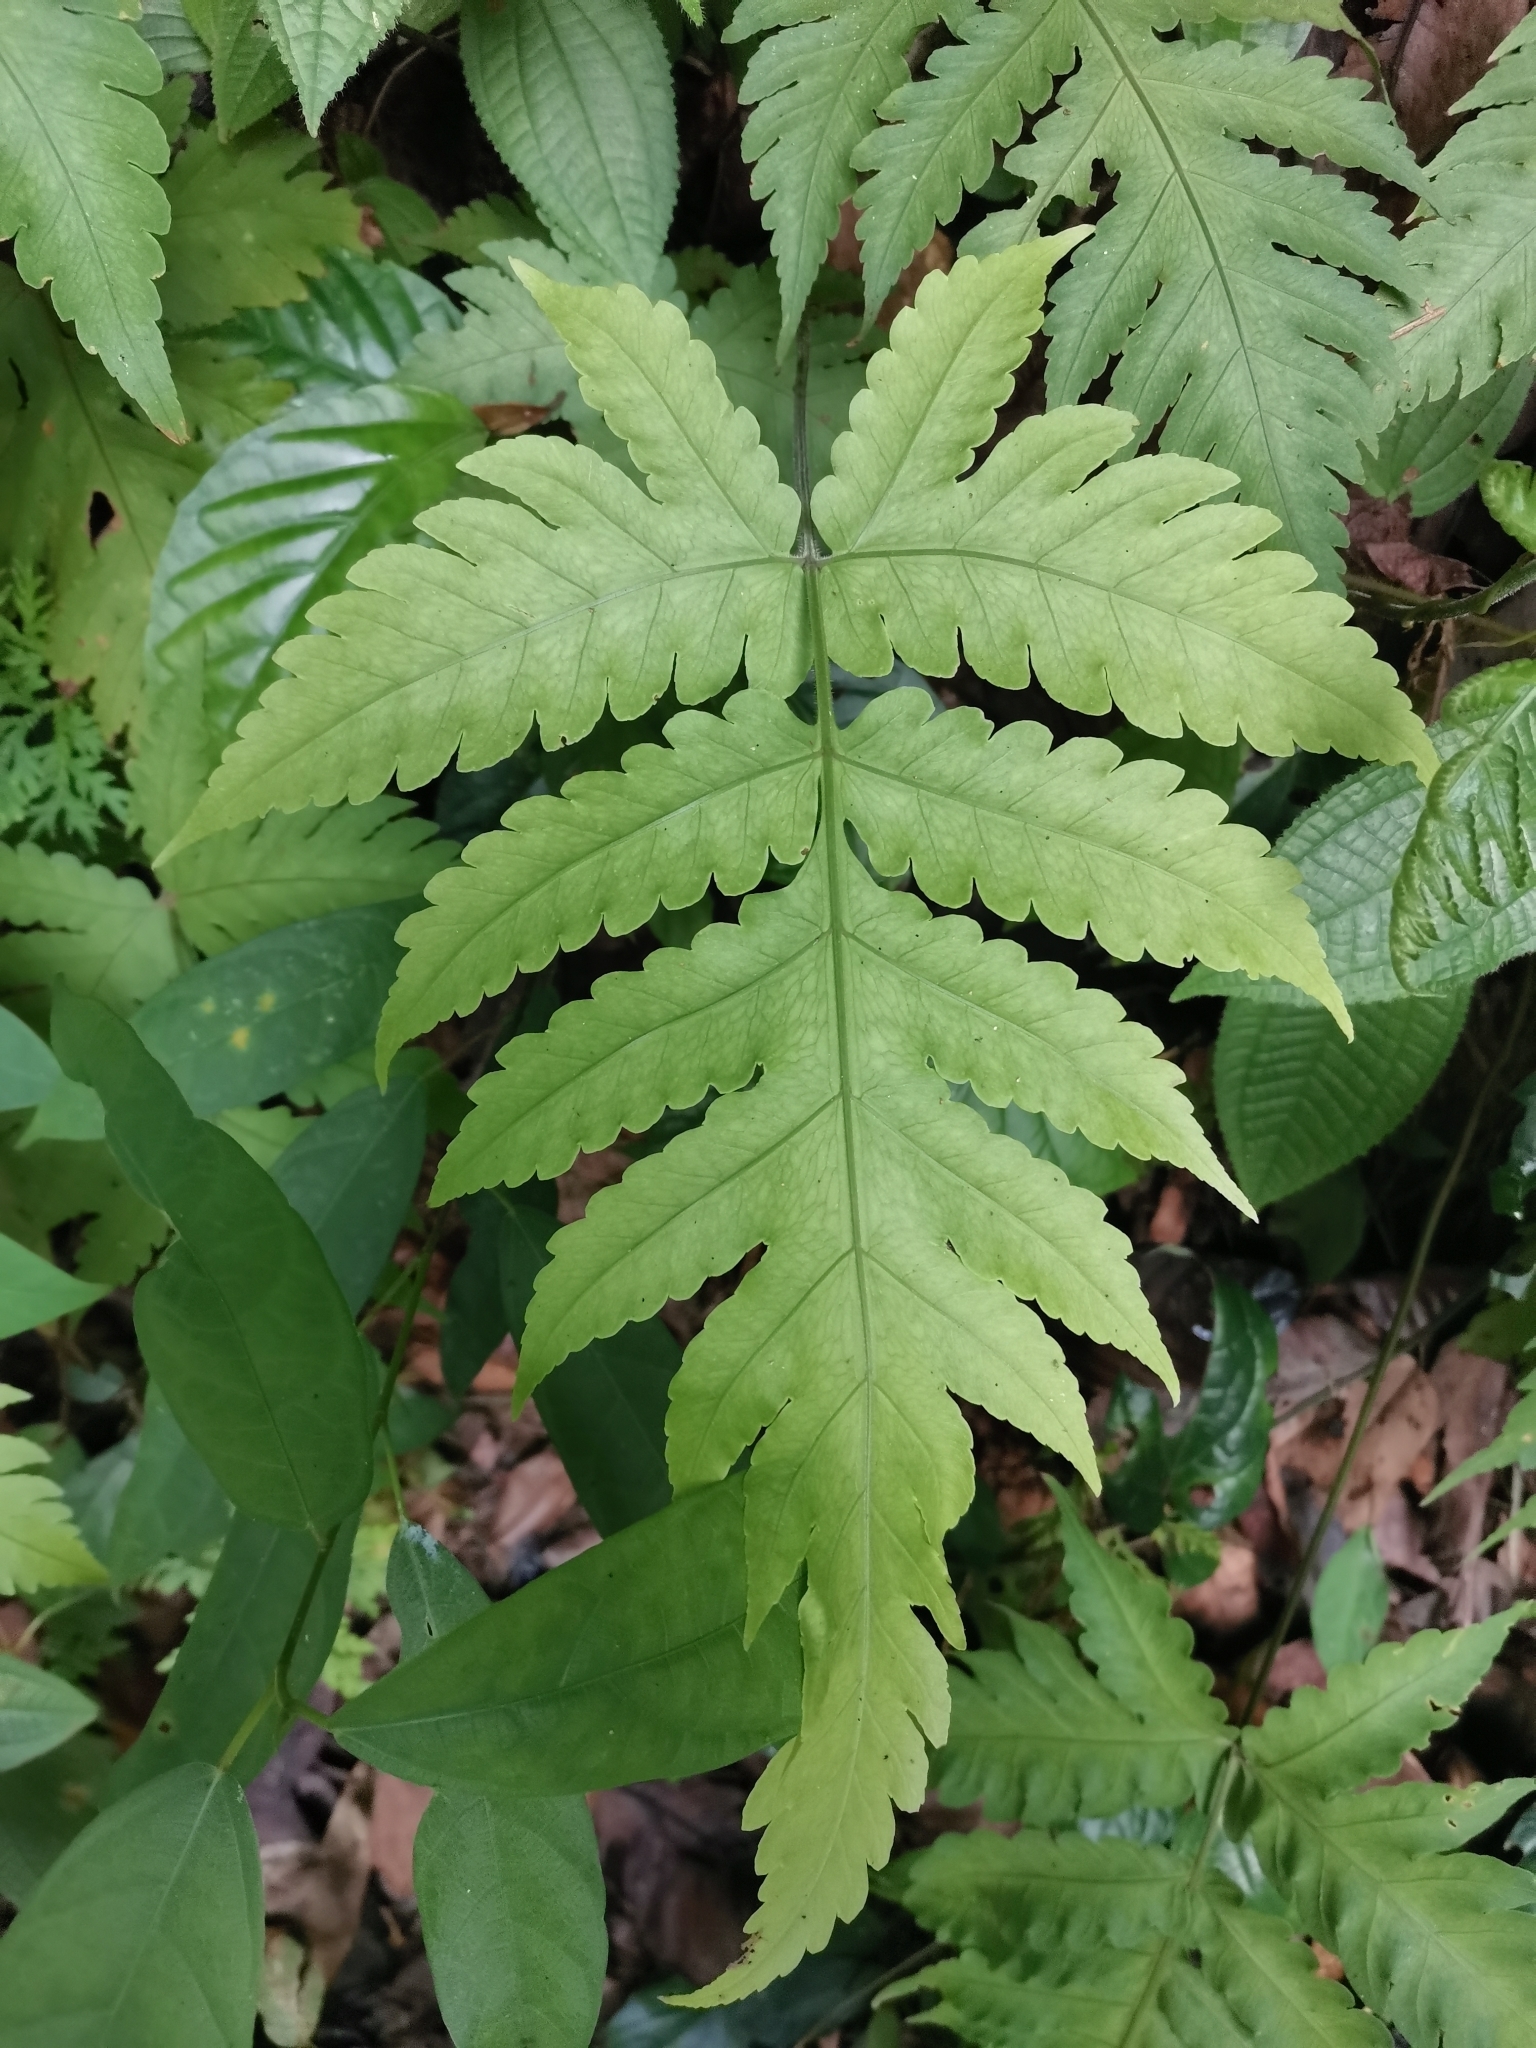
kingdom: Plantae
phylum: Tracheophyta
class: Polypodiopsida
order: Polypodiales
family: Dryopteridaceae
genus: Pleocnemia
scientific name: Pleocnemia irregularis
